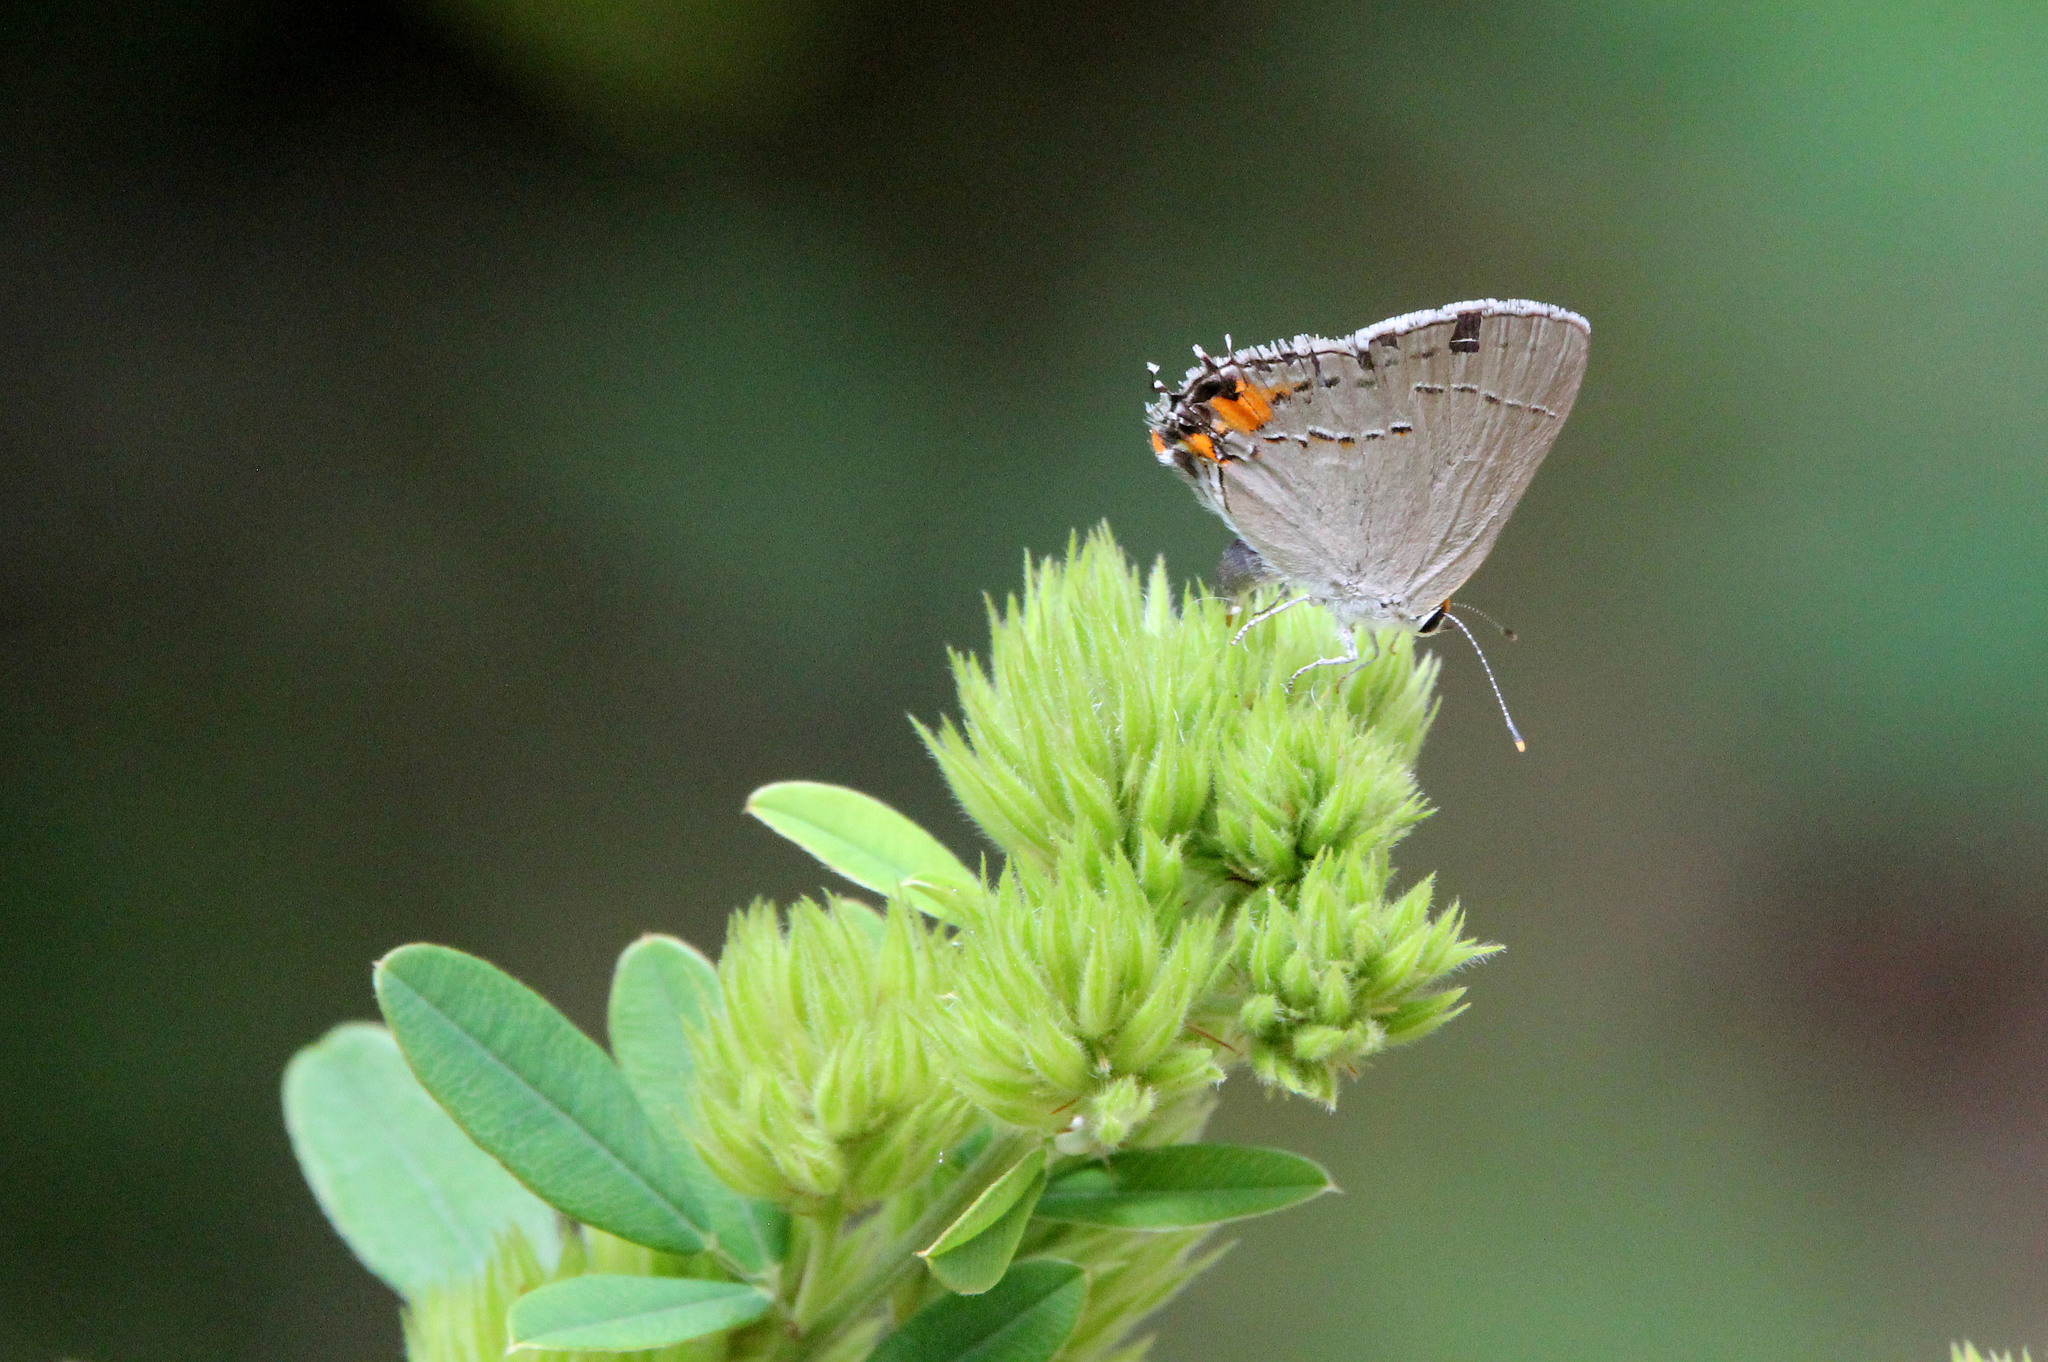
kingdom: Animalia
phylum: Arthropoda
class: Insecta
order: Lepidoptera
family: Lycaenidae
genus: Strymon
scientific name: Strymon melinus
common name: Gray hairstreak
